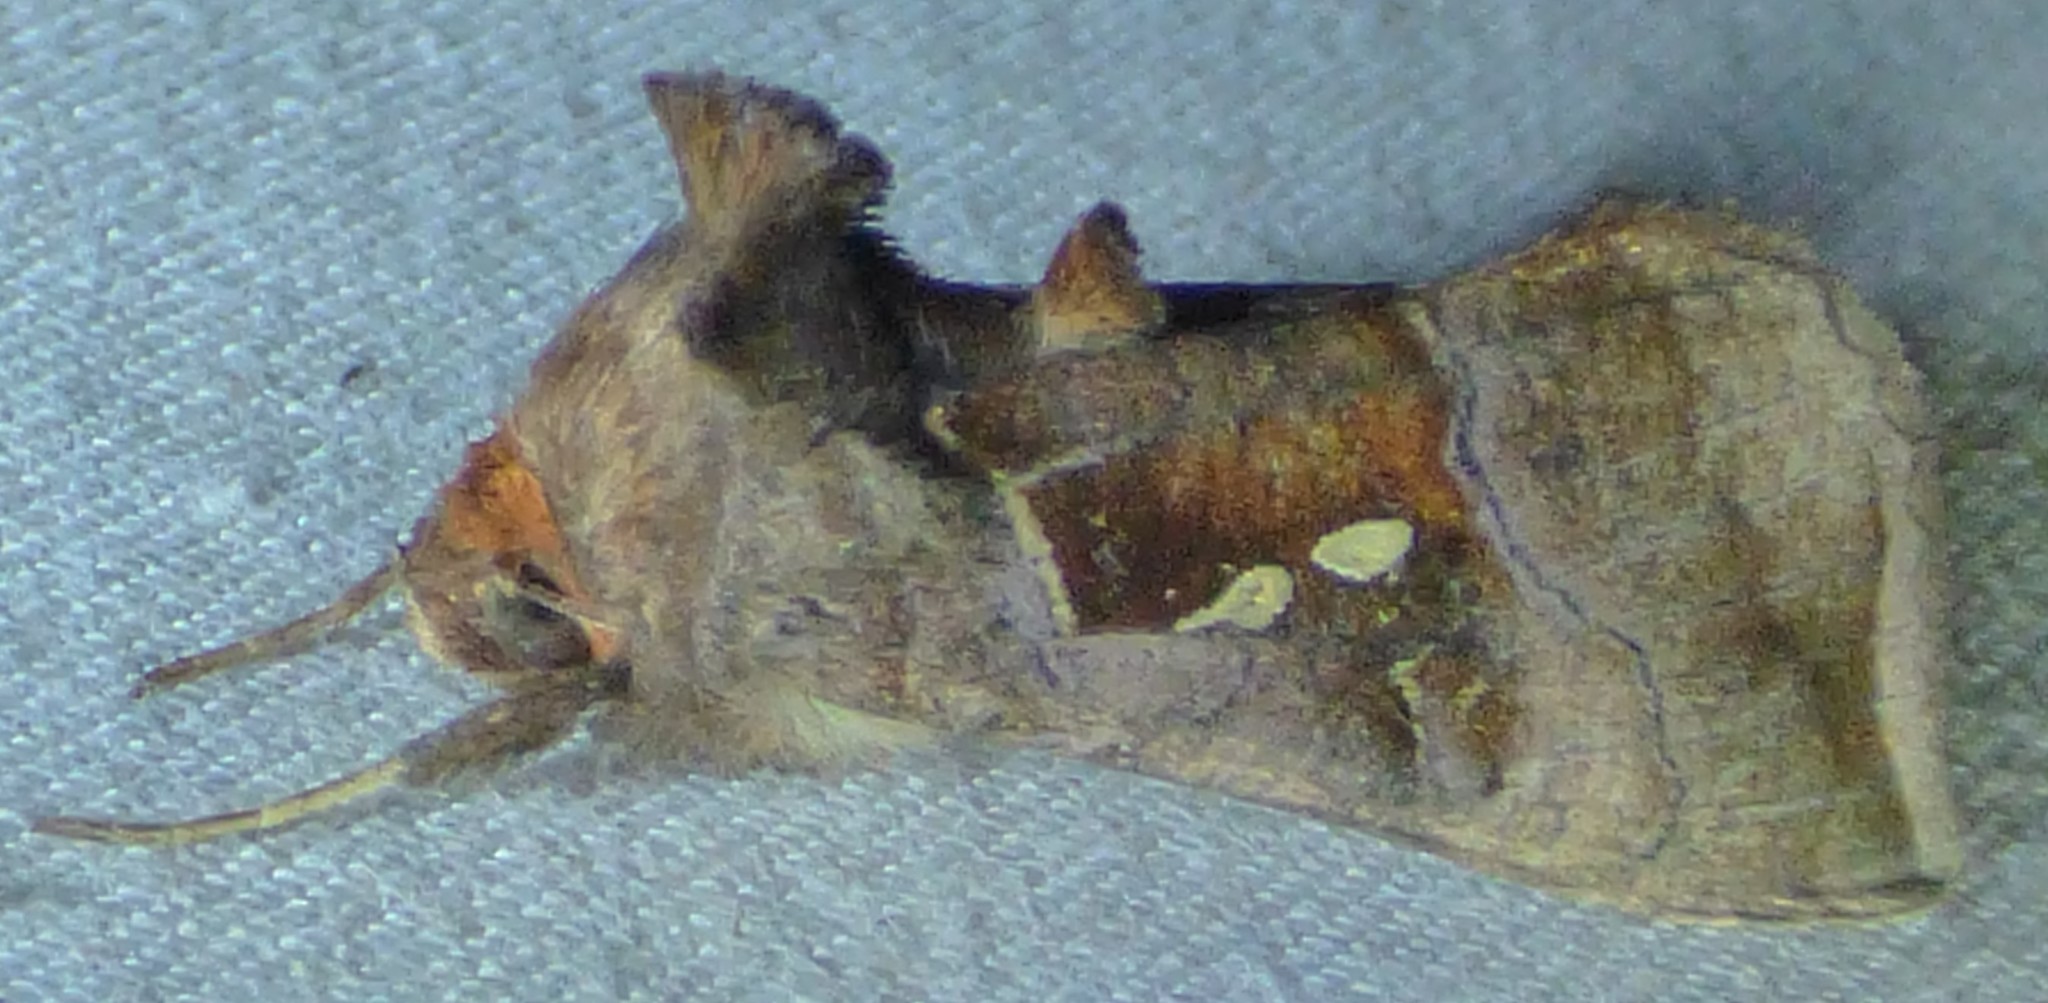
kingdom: Animalia
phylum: Arthropoda
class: Insecta
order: Lepidoptera
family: Noctuidae
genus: Enigmogramma
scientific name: Enigmogramma basigera
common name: Pink-washed looper moth
